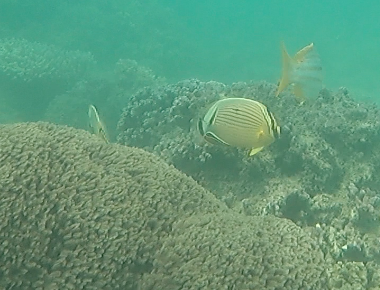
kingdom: Animalia
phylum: Chordata
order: Perciformes
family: Chaetodontidae
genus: Chaetodon
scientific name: Chaetodon lunulatus
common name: Redfin butterflyfish
